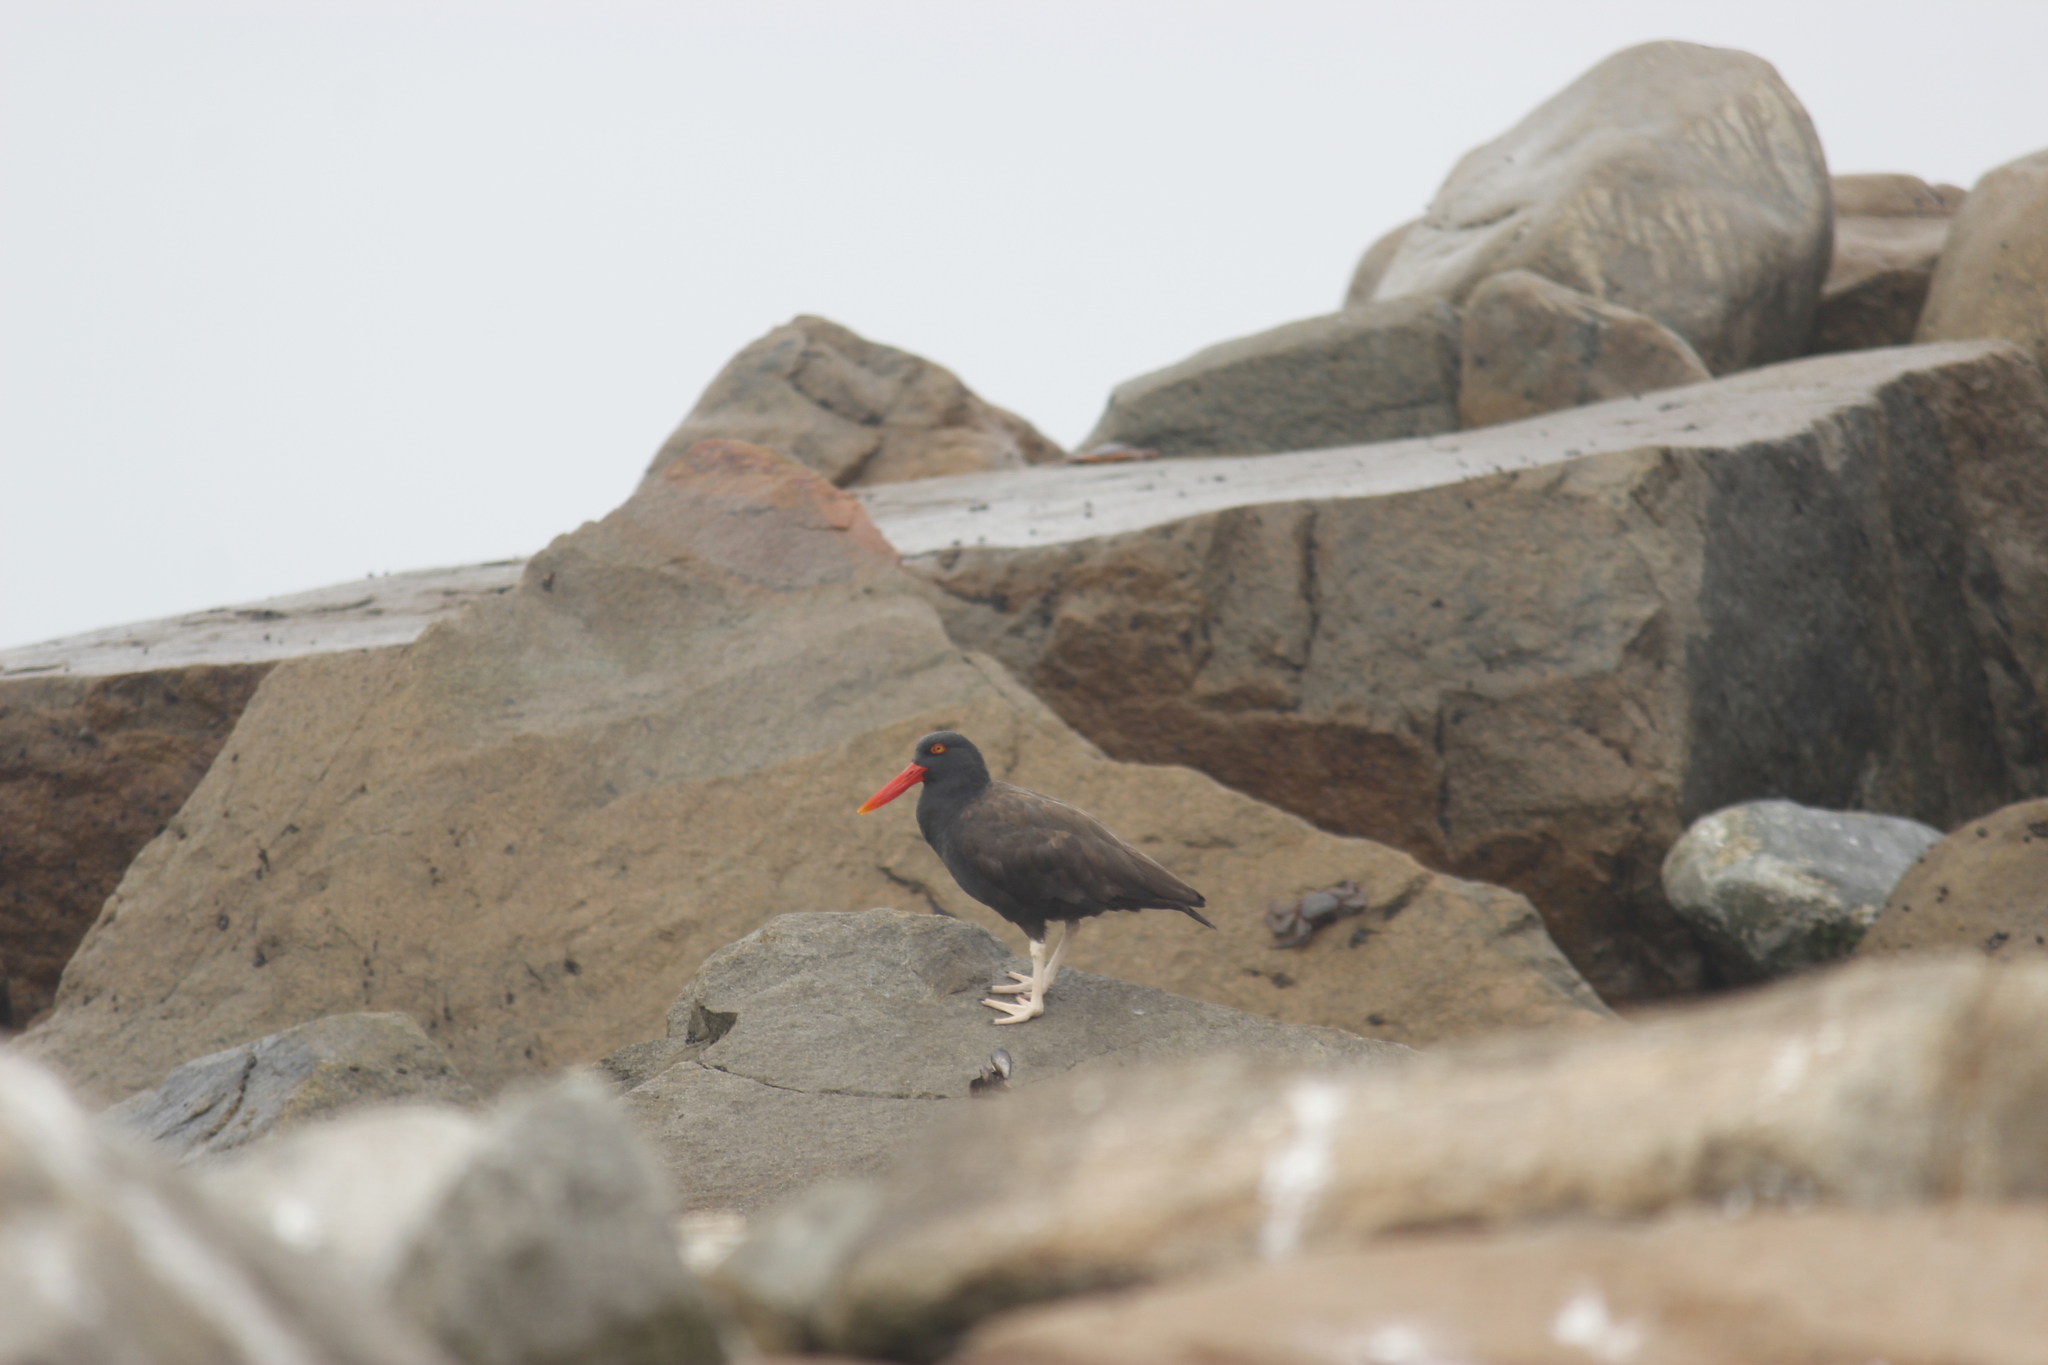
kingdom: Animalia
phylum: Chordata
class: Aves
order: Charadriiformes
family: Haematopodidae
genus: Haematopus
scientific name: Haematopus ater
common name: Blackish oystercatcher
